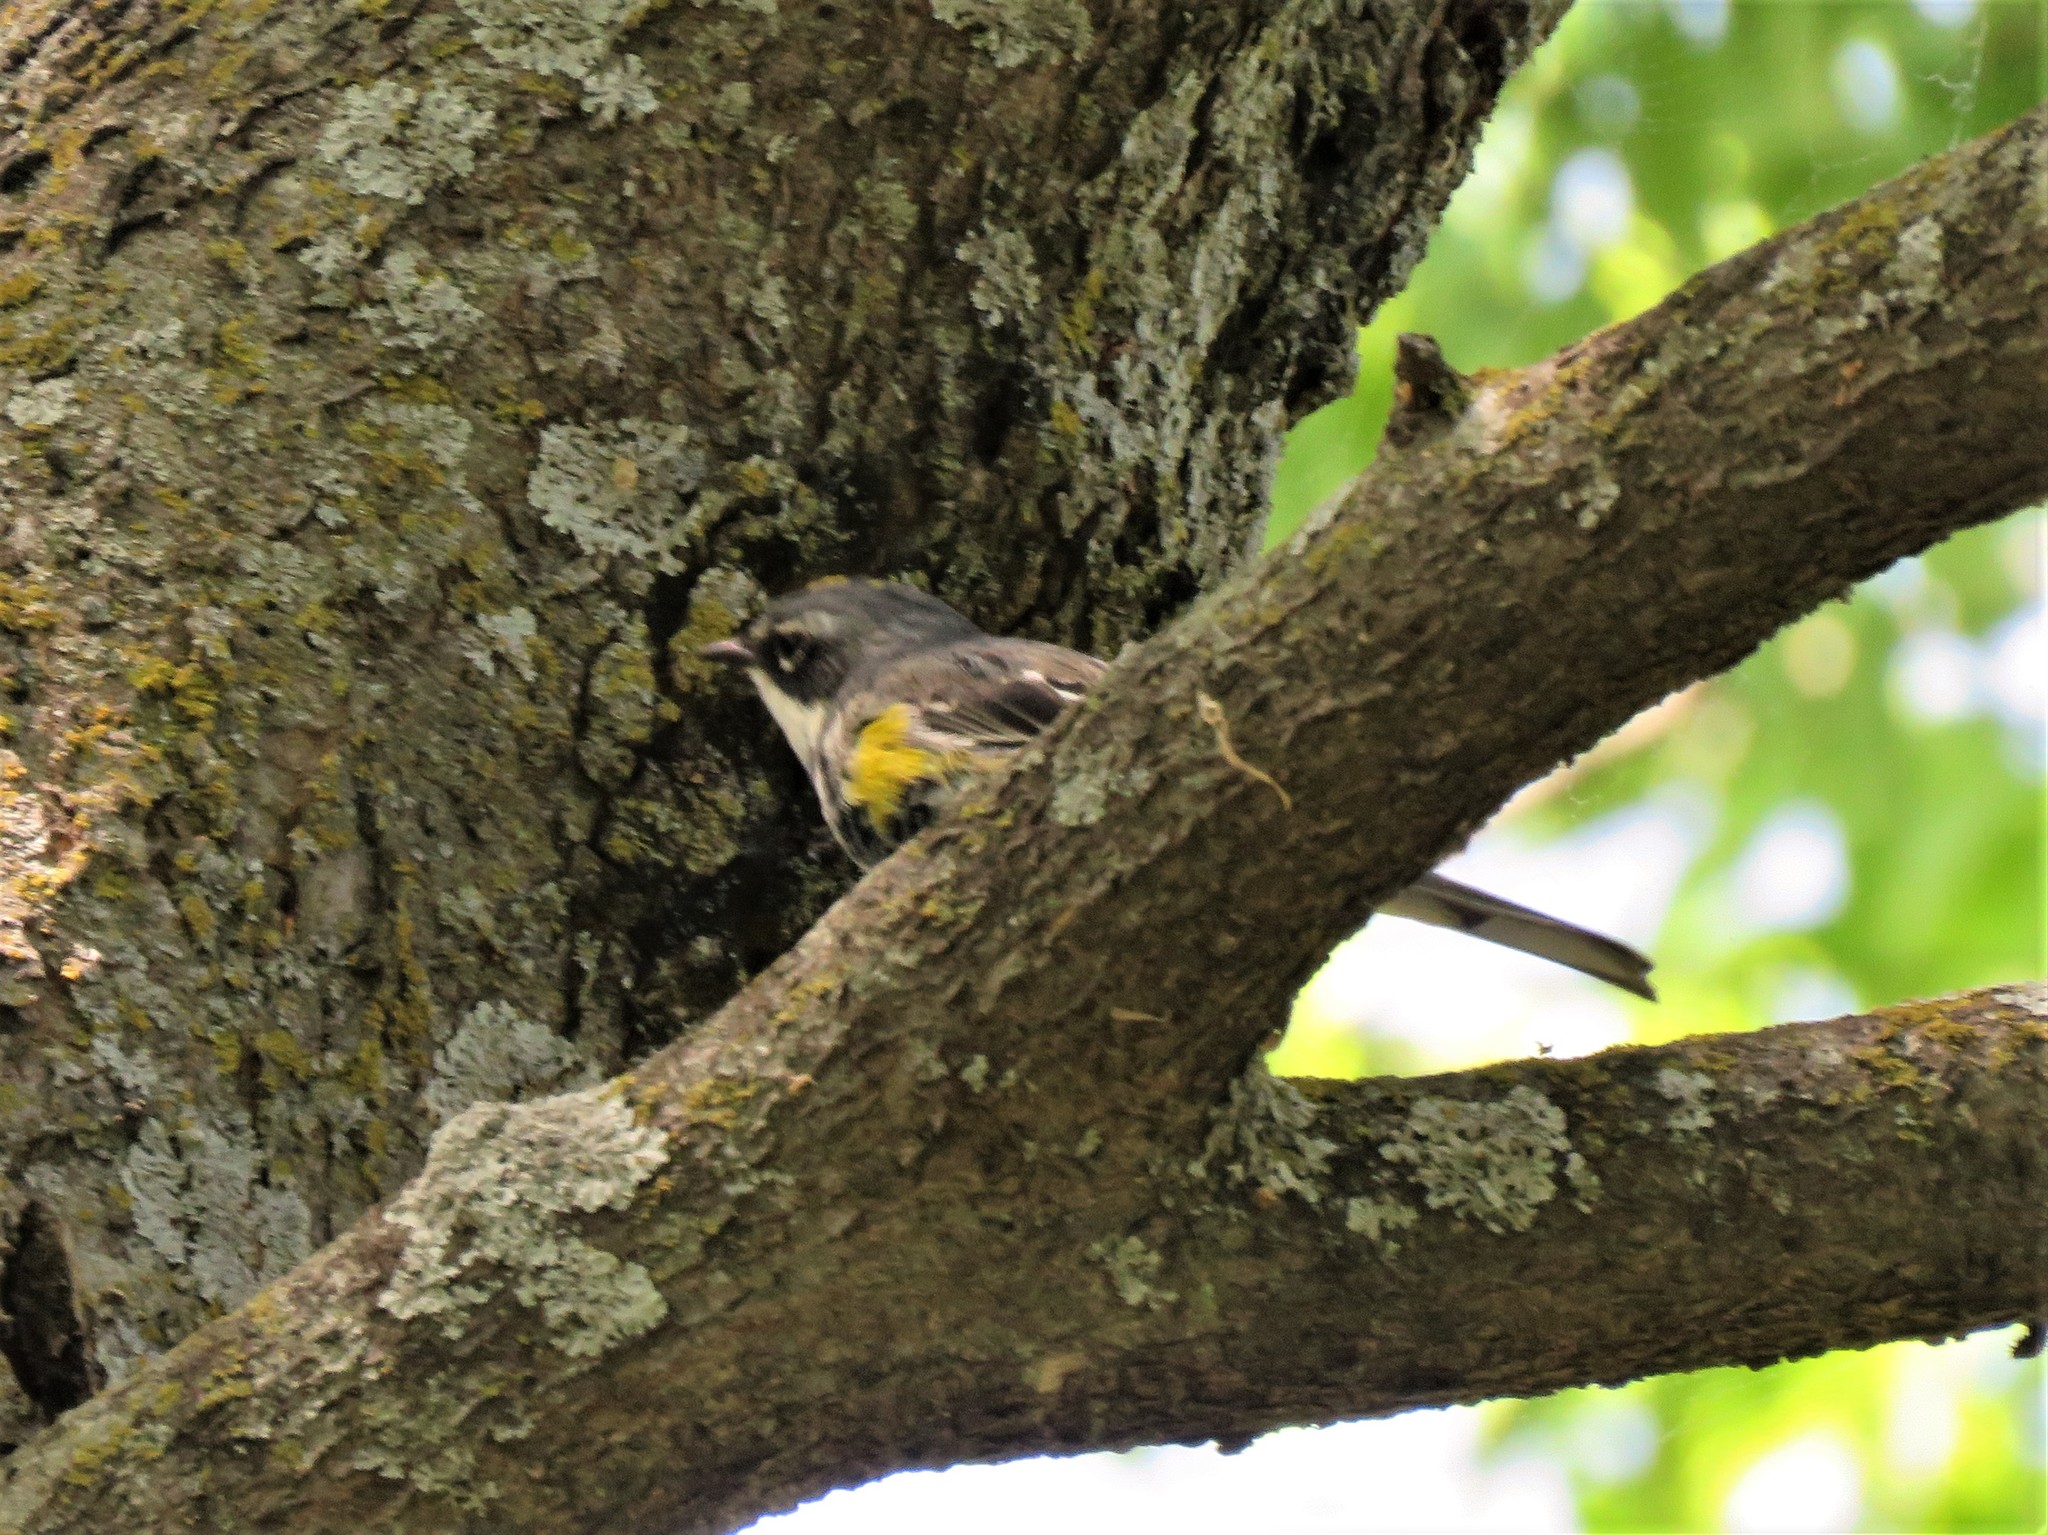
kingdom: Animalia
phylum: Chordata
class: Aves
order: Passeriformes
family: Parulidae
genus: Setophaga
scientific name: Setophaga coronata
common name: Myrtle warbler
